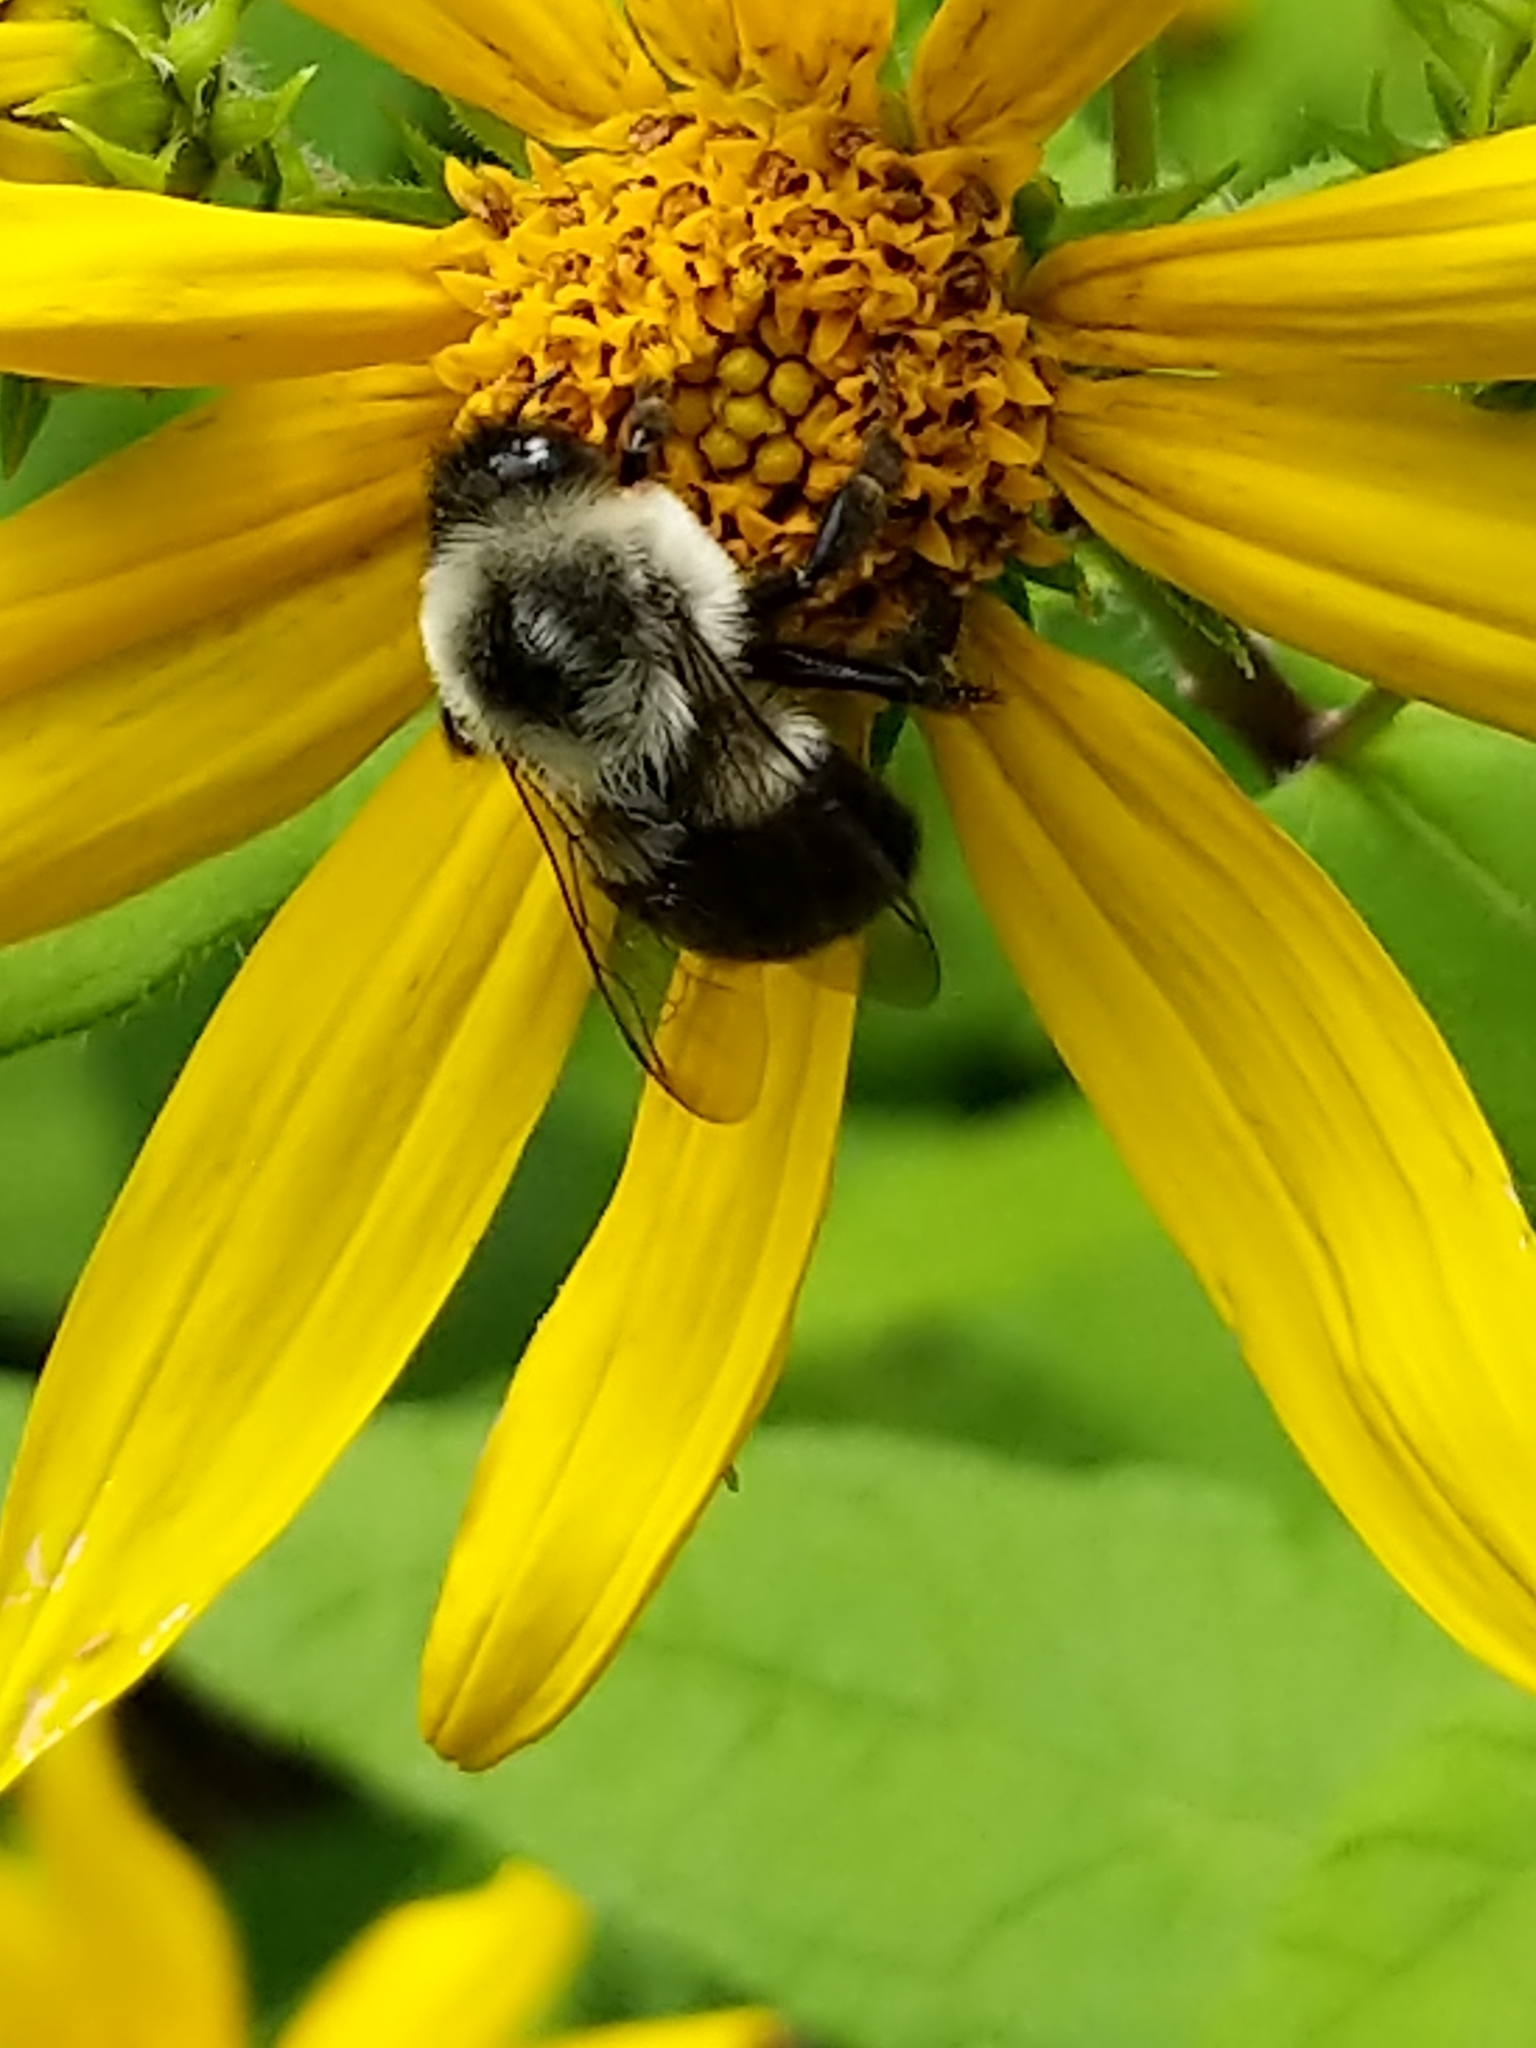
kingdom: Animalia
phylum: Arthropoda
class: Insecta
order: Hymenoptera
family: Apidae
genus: Bombus
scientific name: Bombus impatiens
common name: Common eastern bumble bee
